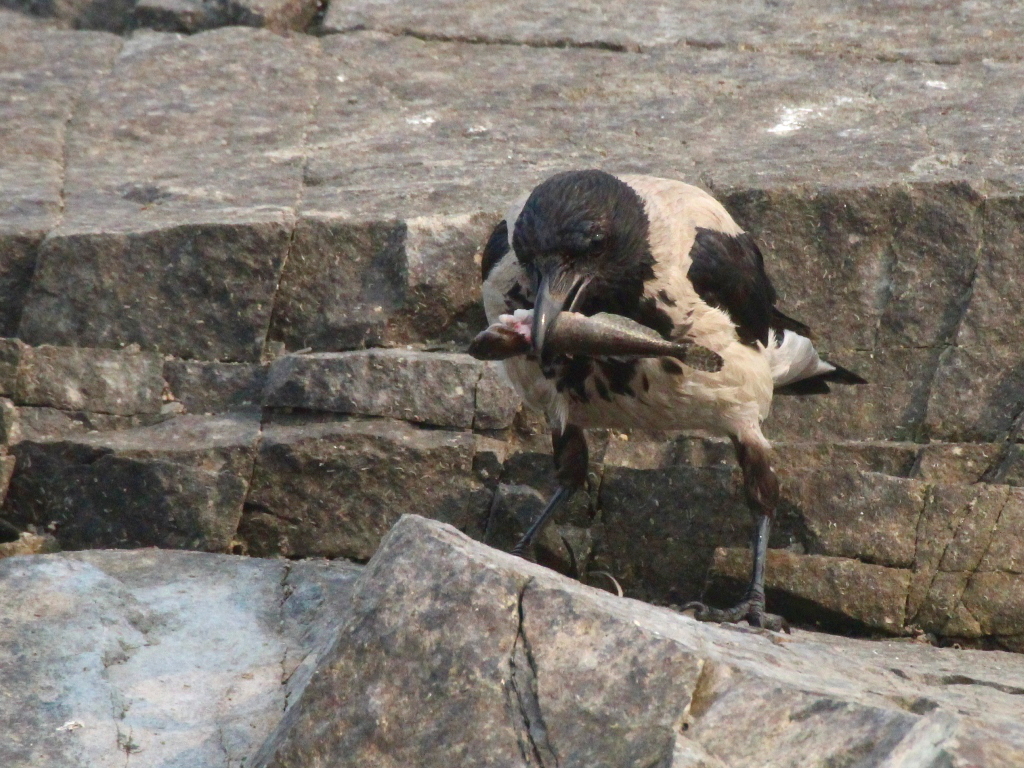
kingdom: Animalia
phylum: Chordata
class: Aves
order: Passeriformes
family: Corvidae
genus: Corvus
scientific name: Corvus cornix
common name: Hooded crow
